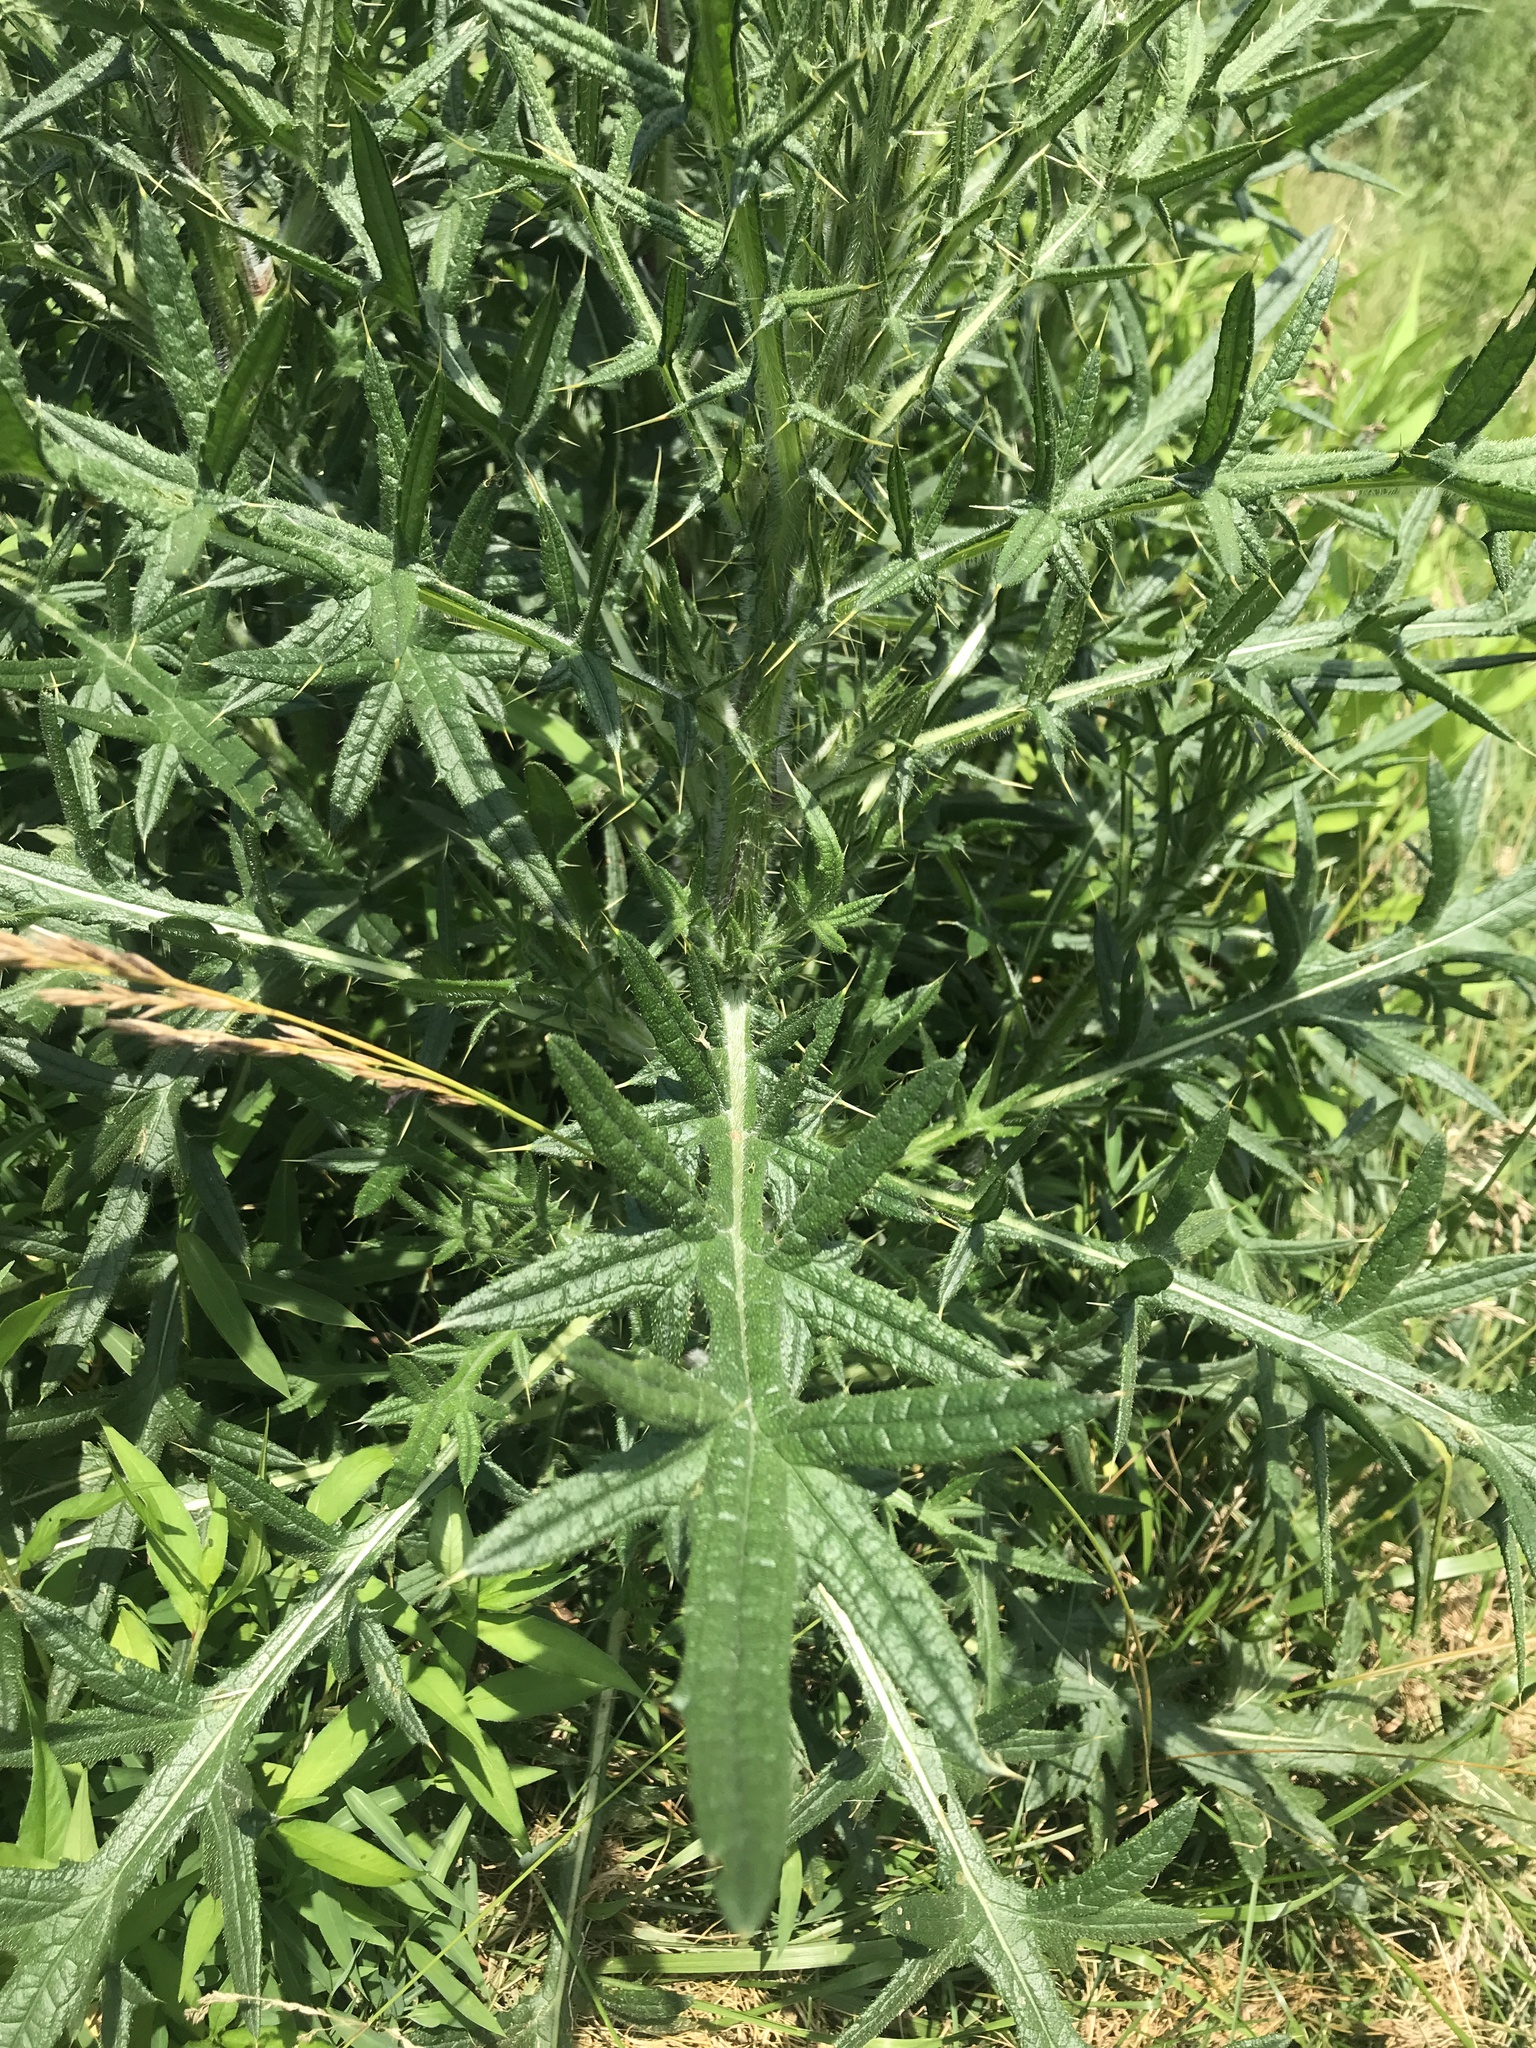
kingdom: Plantae
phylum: Tracheophyta
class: Magnoliopsida
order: Asterales
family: Asteraceae
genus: Cirsium
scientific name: Cirsium vulgare
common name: Bull thistle
